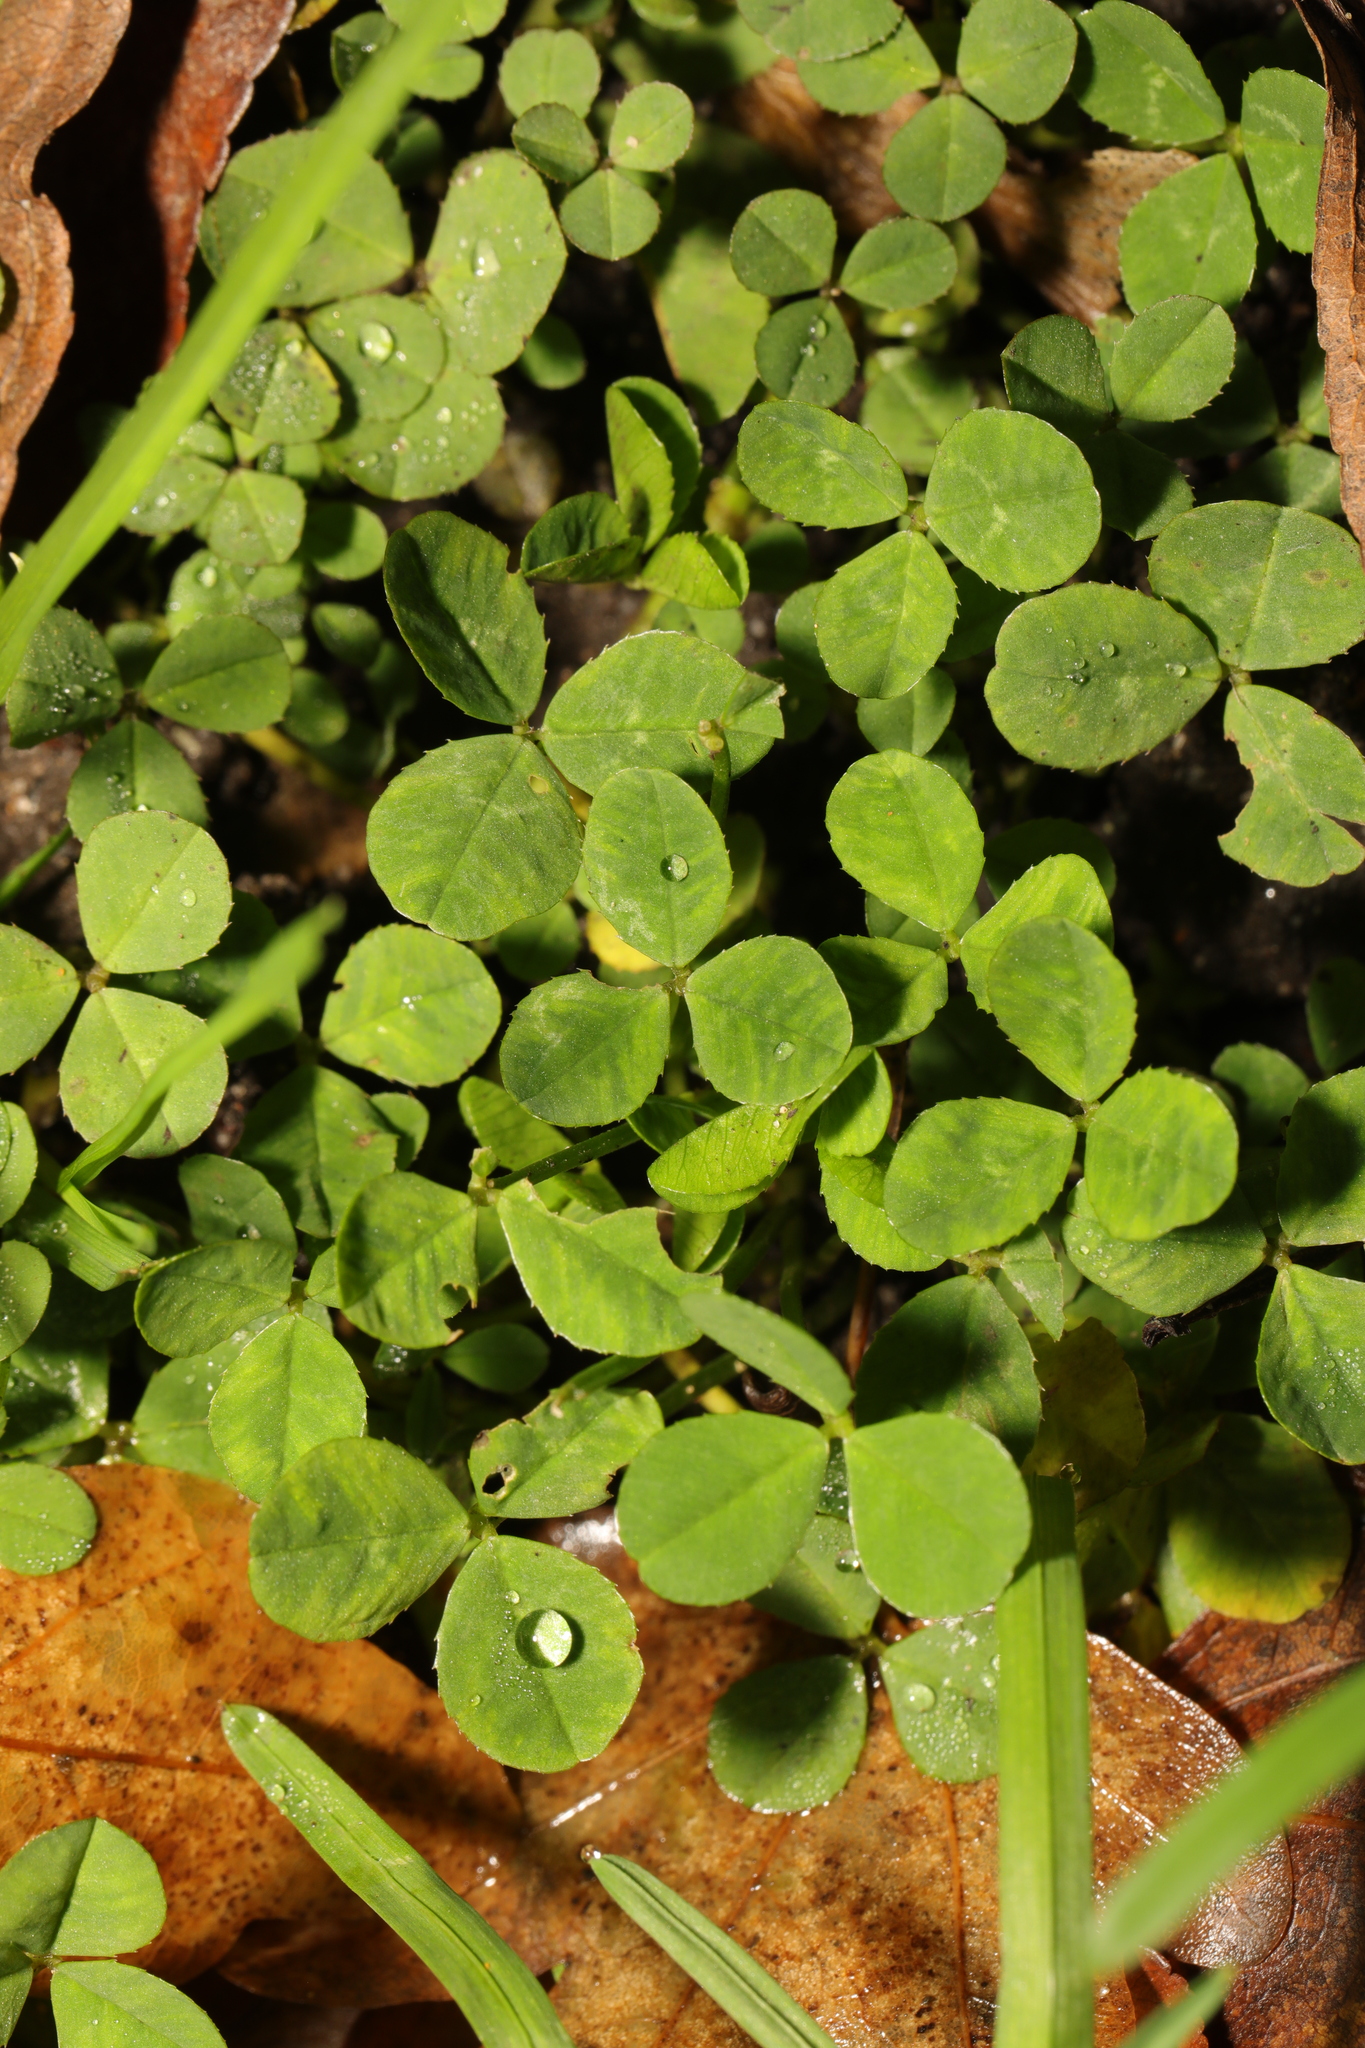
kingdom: Plantae
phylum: Tracheophyta
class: Magnoliopsida
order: Fabales
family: Fabaceae
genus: Trifolium
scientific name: Trifolium repens
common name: White clover
